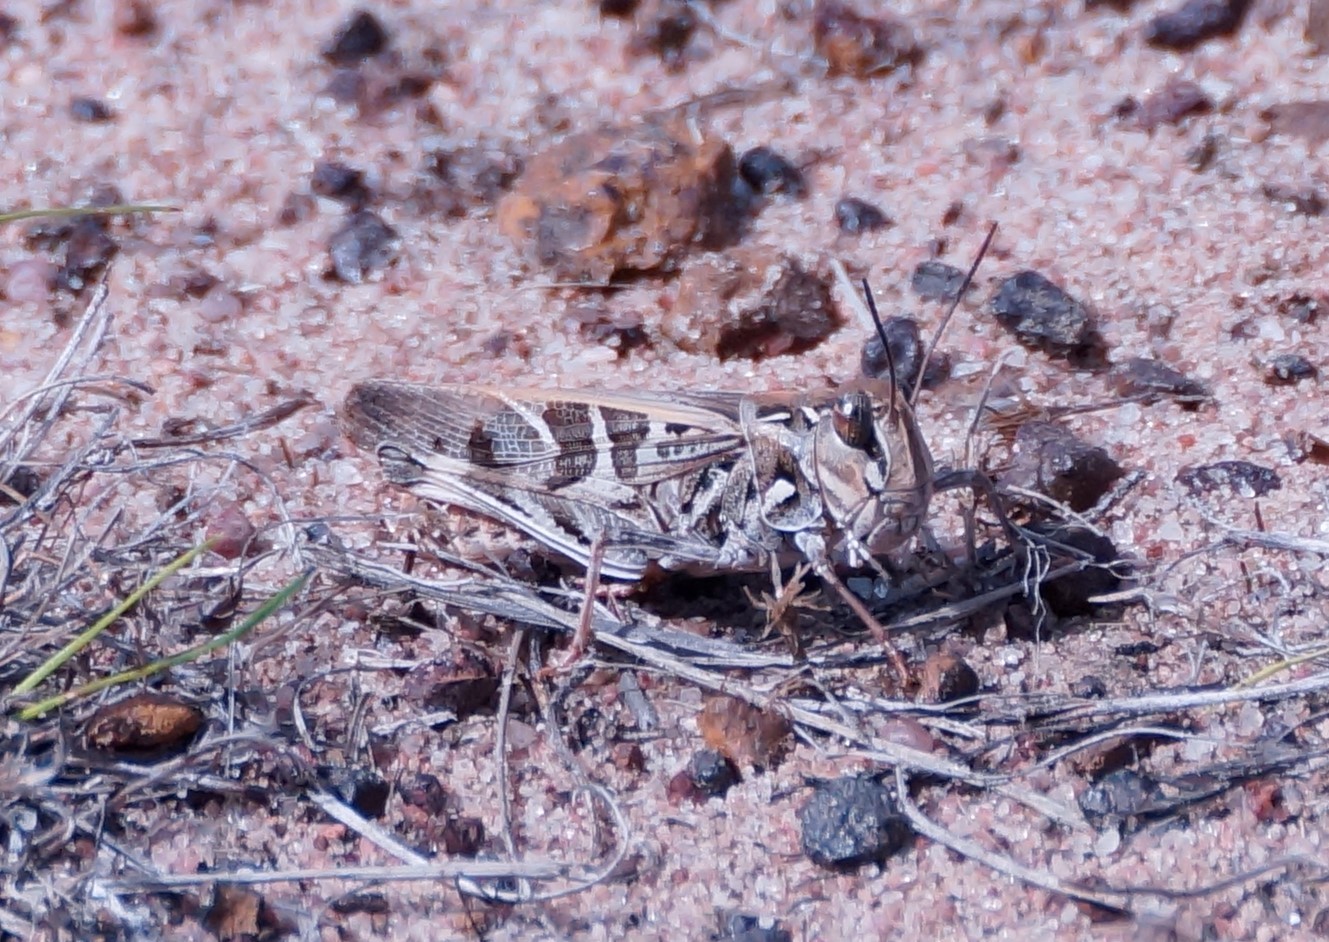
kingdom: Animalia
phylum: Arthropoda
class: Insecta
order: Orthoptera
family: Acrididae
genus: Oedaleus
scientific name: Oedaleus australis
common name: Eastern oedaleus
